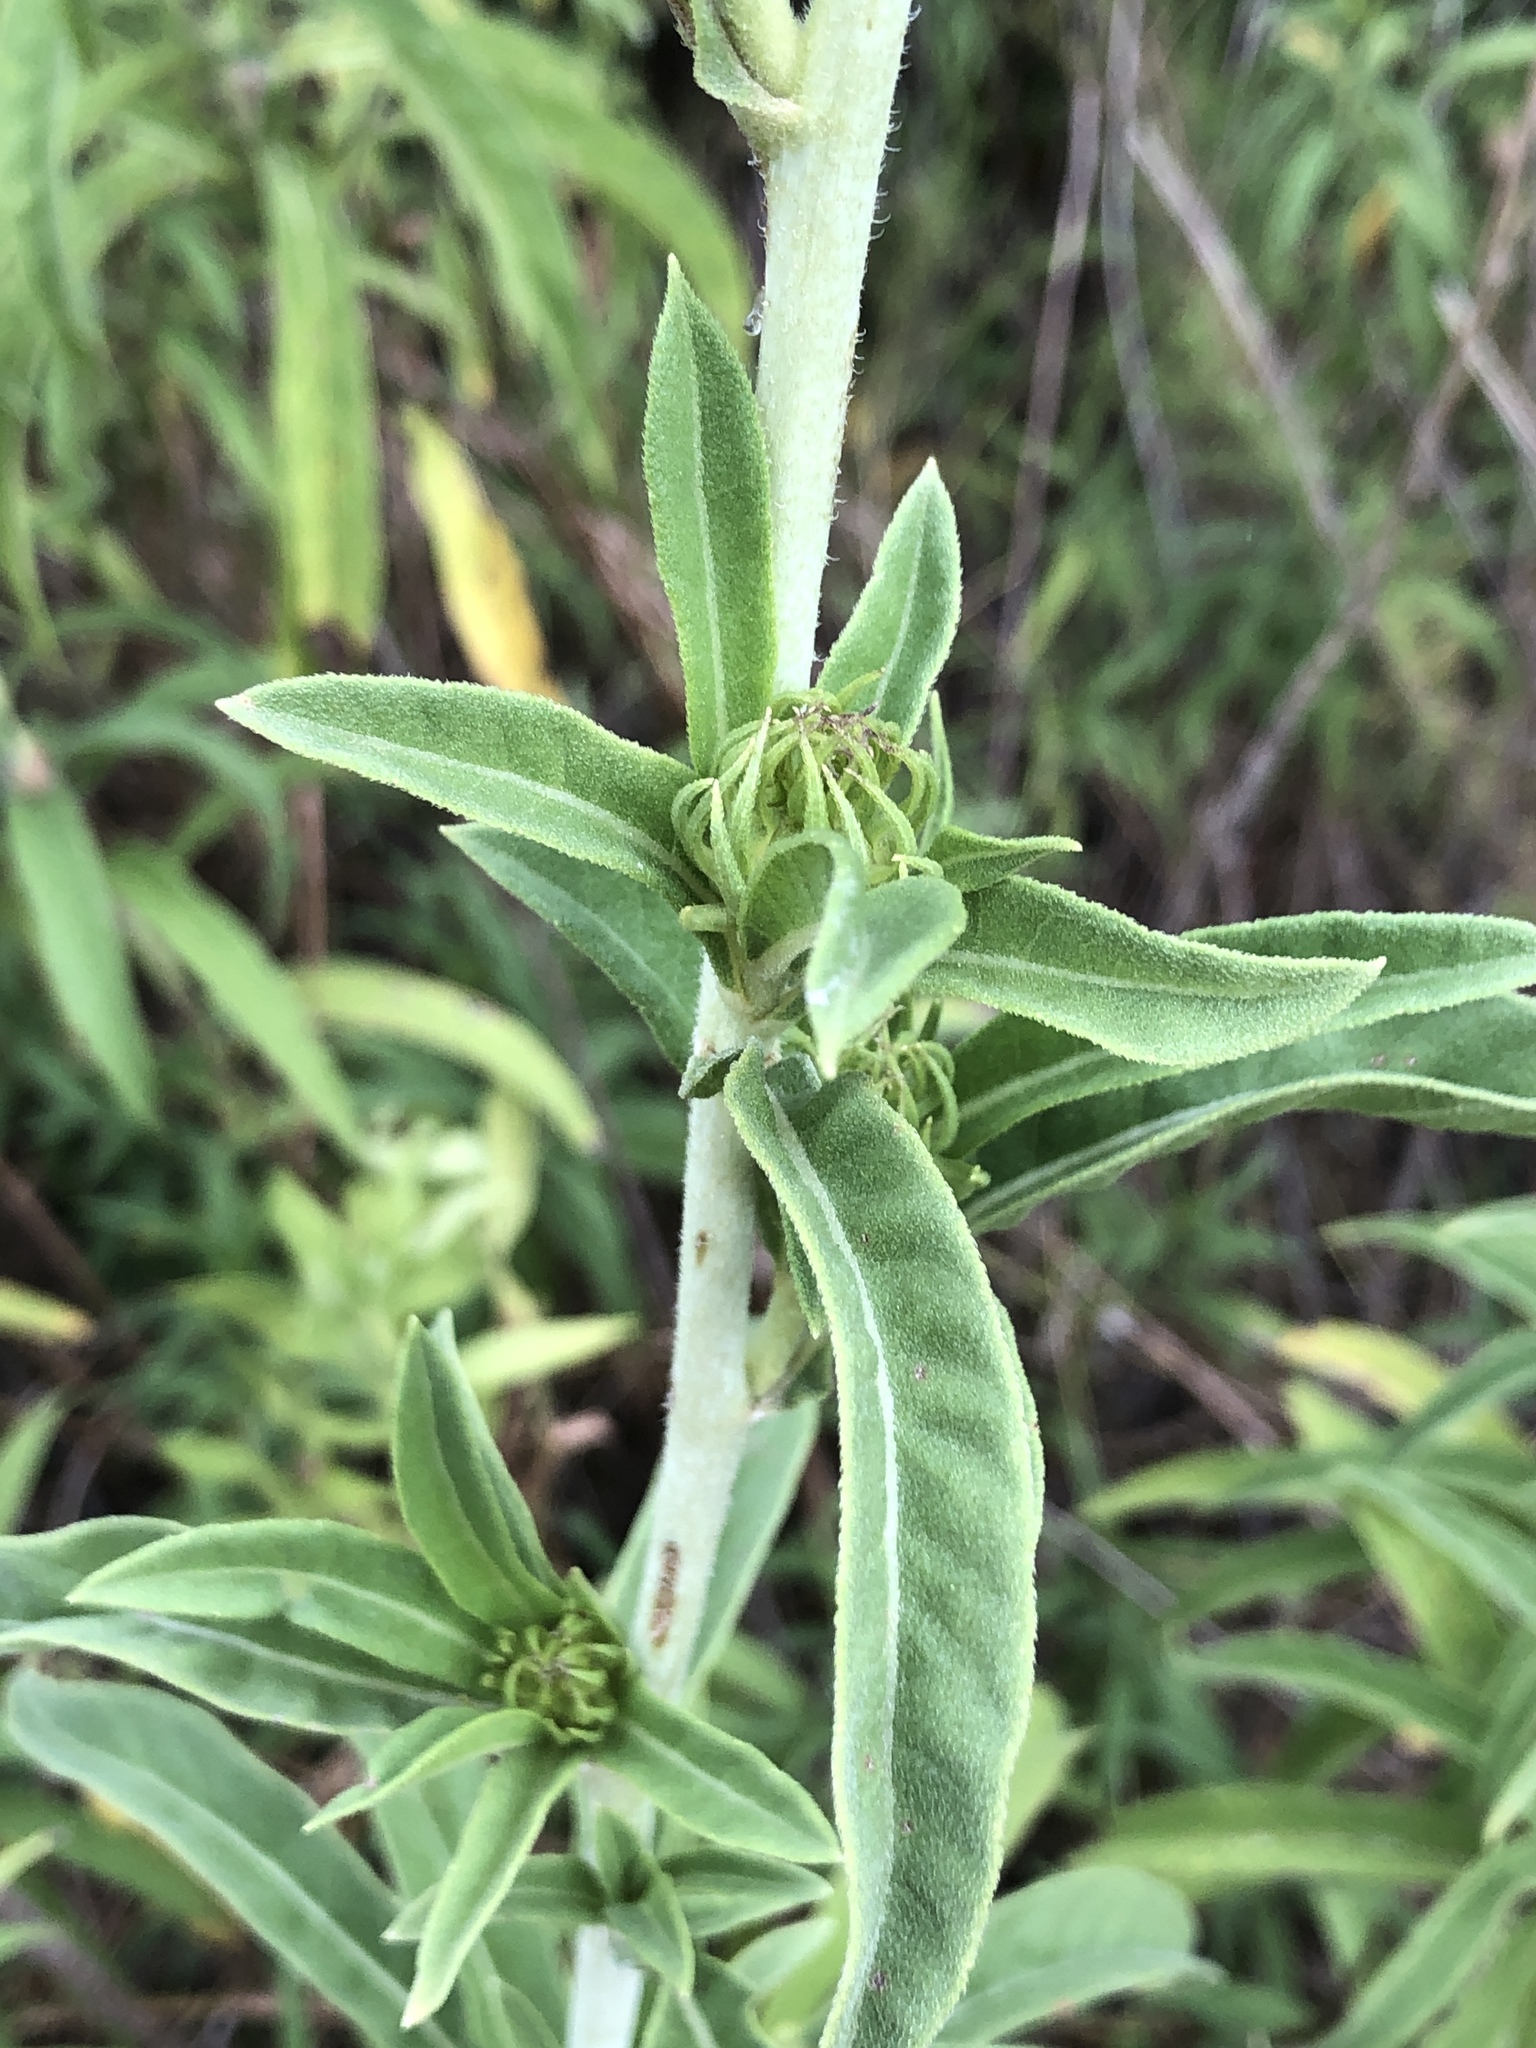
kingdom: Plantae
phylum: Tracheophyta
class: Magnoliopsida
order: Asterales
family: Asteraceae
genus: Helianthus
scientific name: Helianthus maximiliani
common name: Maximilian's sunflower
